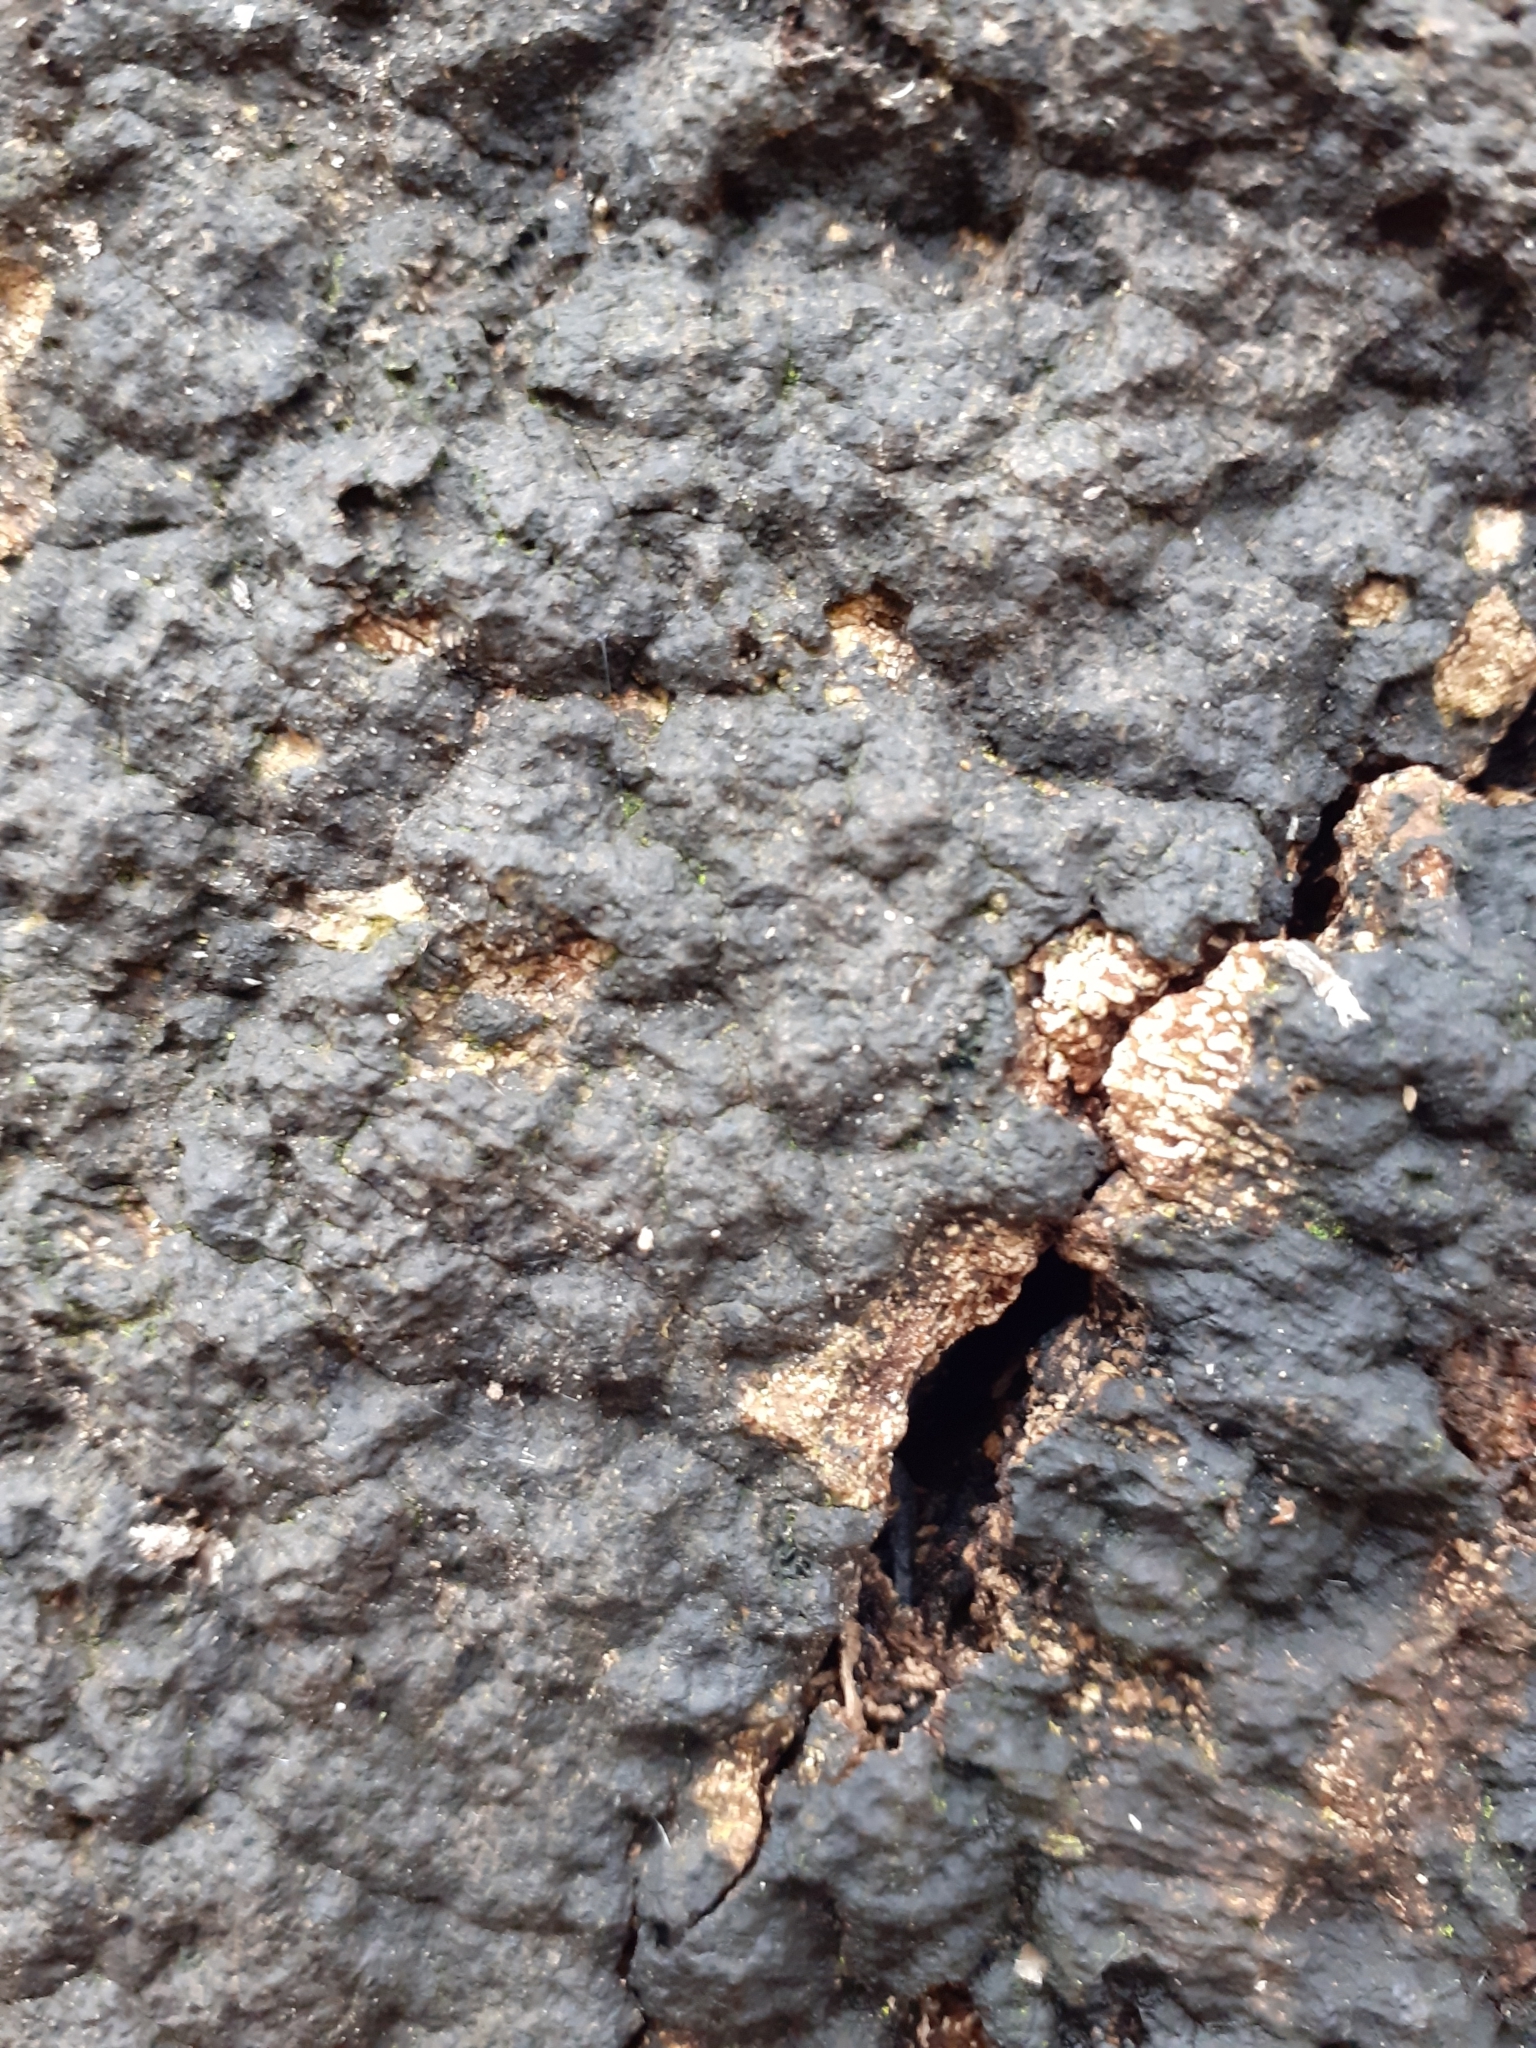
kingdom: Fungi
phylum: Ascomycota
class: Sordariomycetes
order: Xylariales
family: Xylariaceae
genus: Kretzschmaria
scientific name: Kretzschmaria deusta
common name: Brittle cinder
